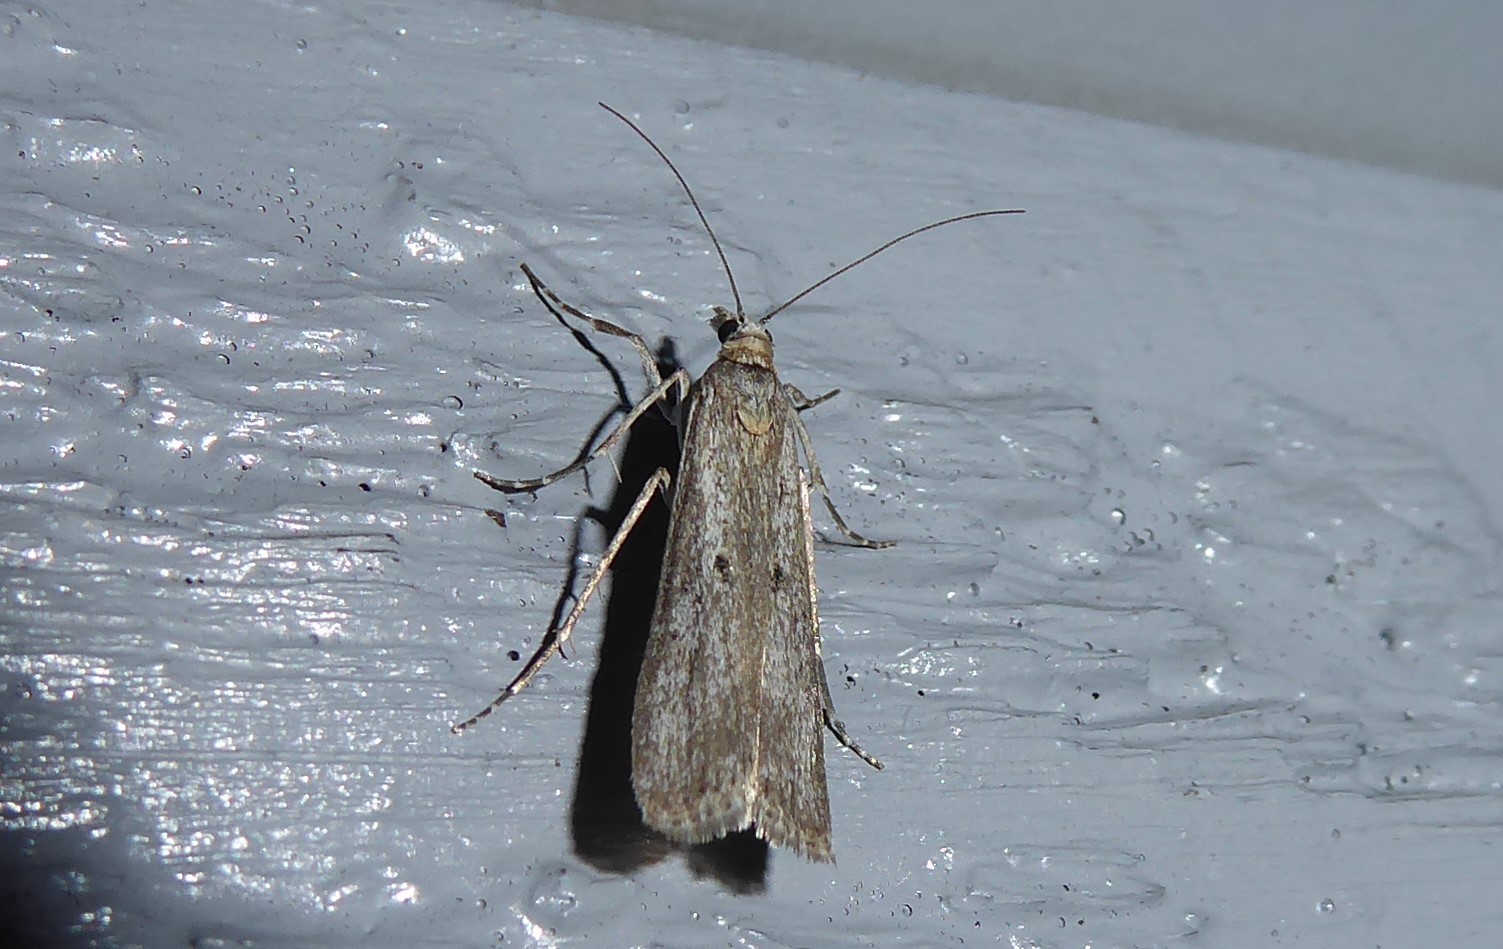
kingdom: Animalia
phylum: Arthropoda
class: Insecta
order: Lepidoptera
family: Crambidae
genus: Eudonia
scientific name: Eudonia leptalea
